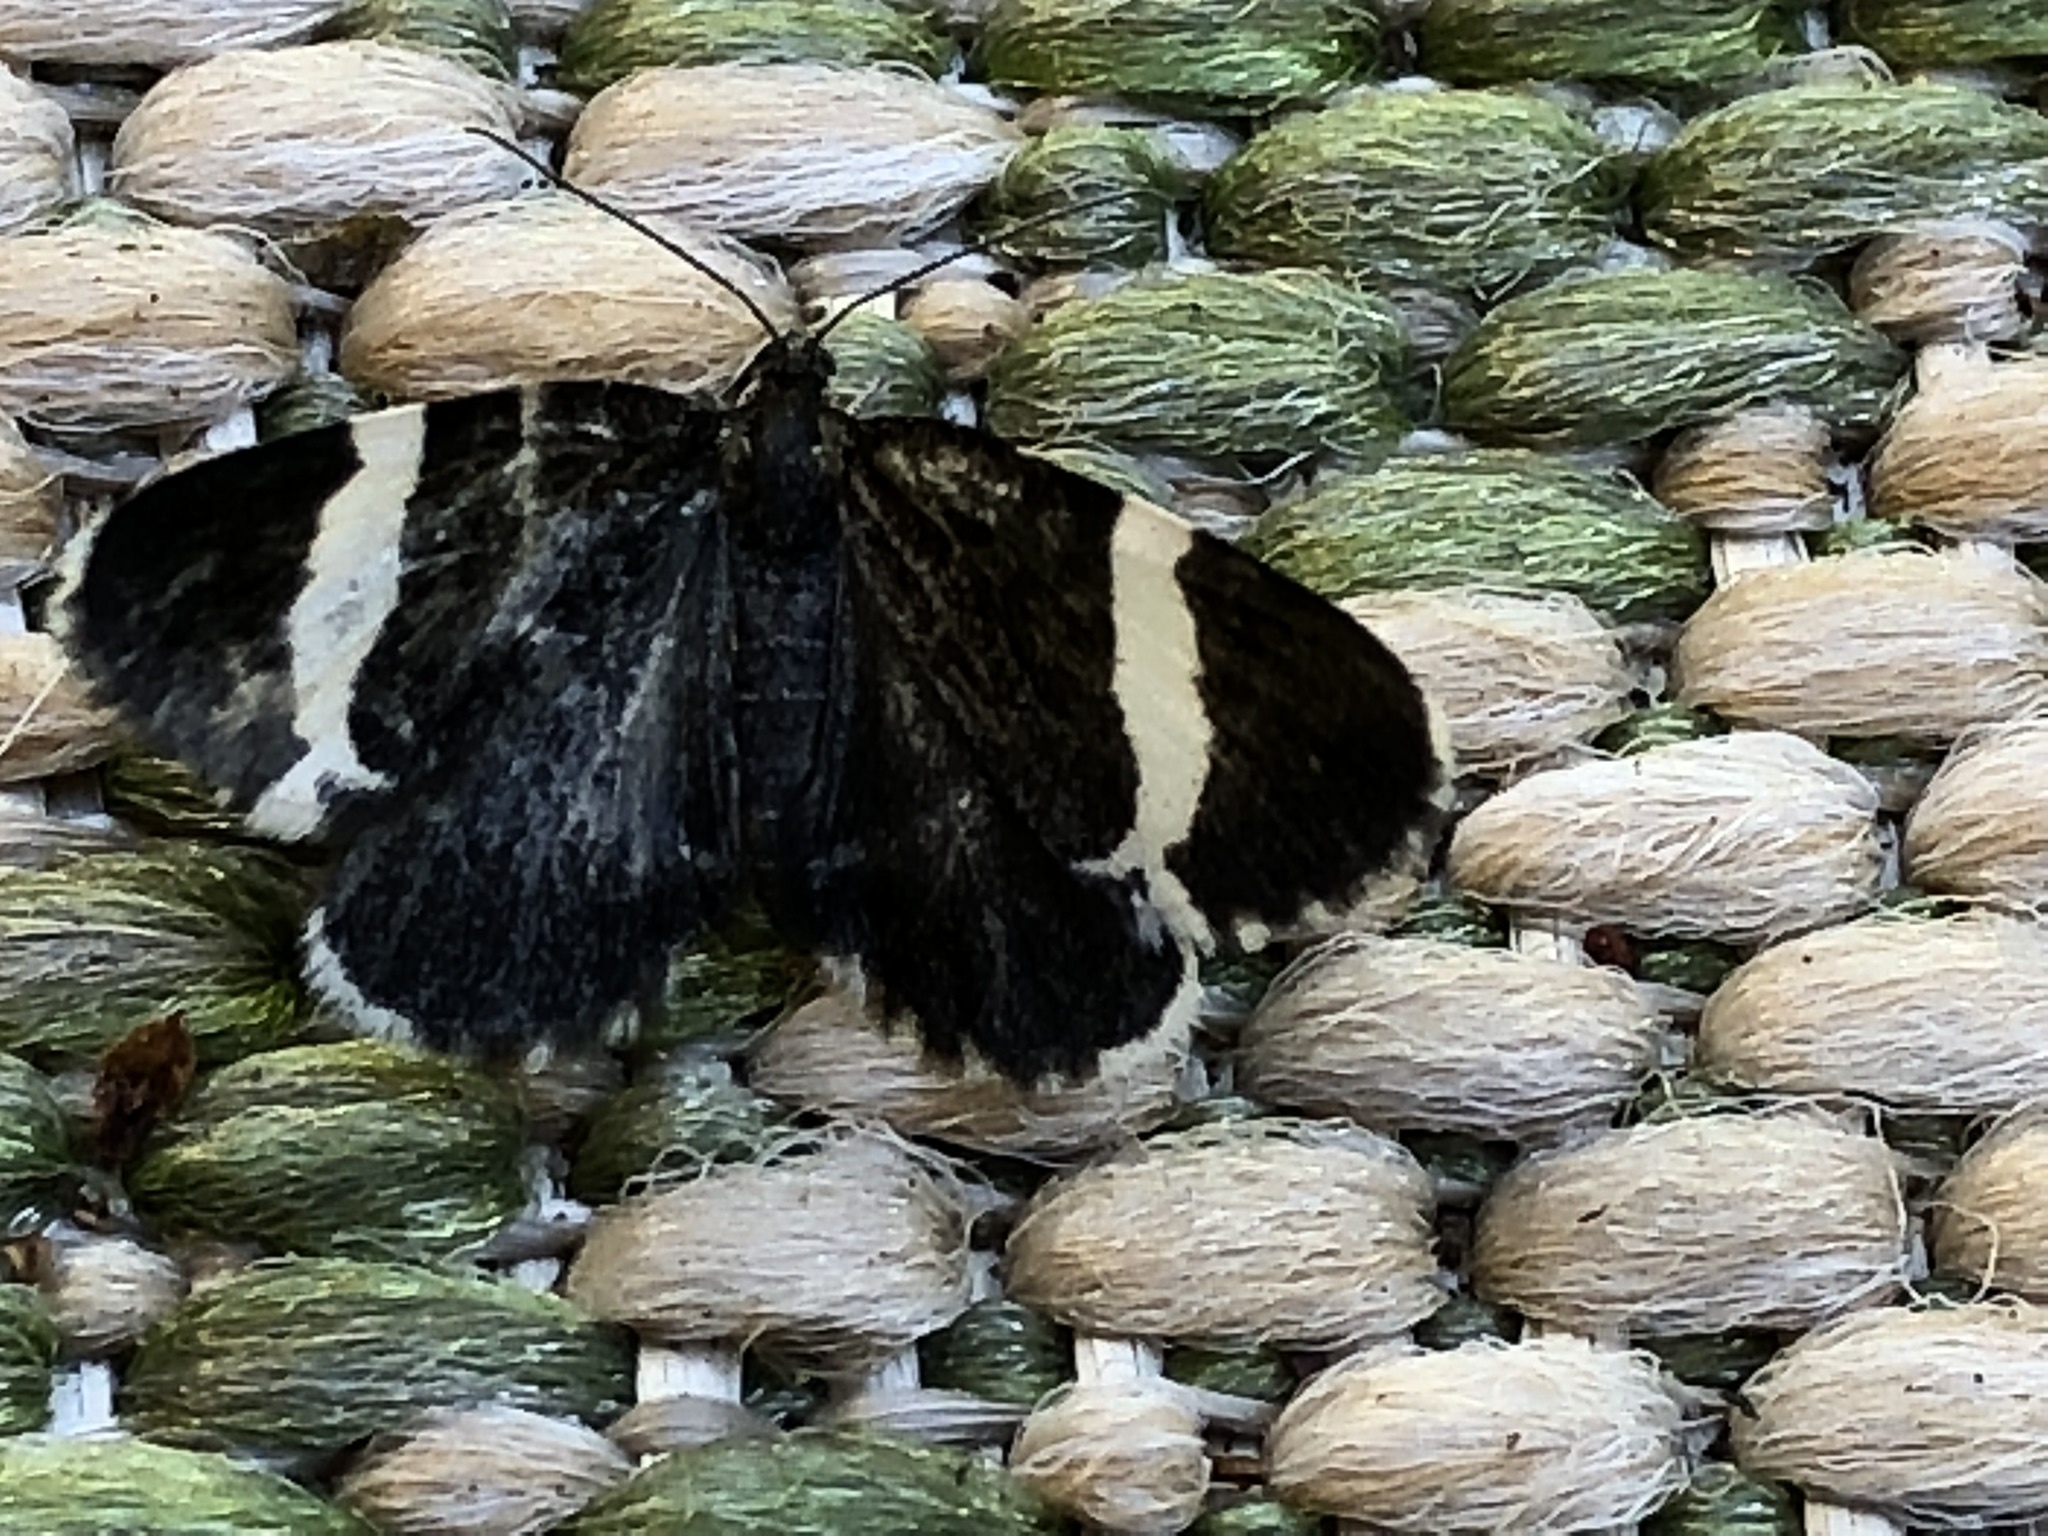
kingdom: Animalia
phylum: Arthropoda
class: Insecta
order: Lepidoptera
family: Geometridae
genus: Trichodezia
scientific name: Trichodezia albovittata
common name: White striped black
